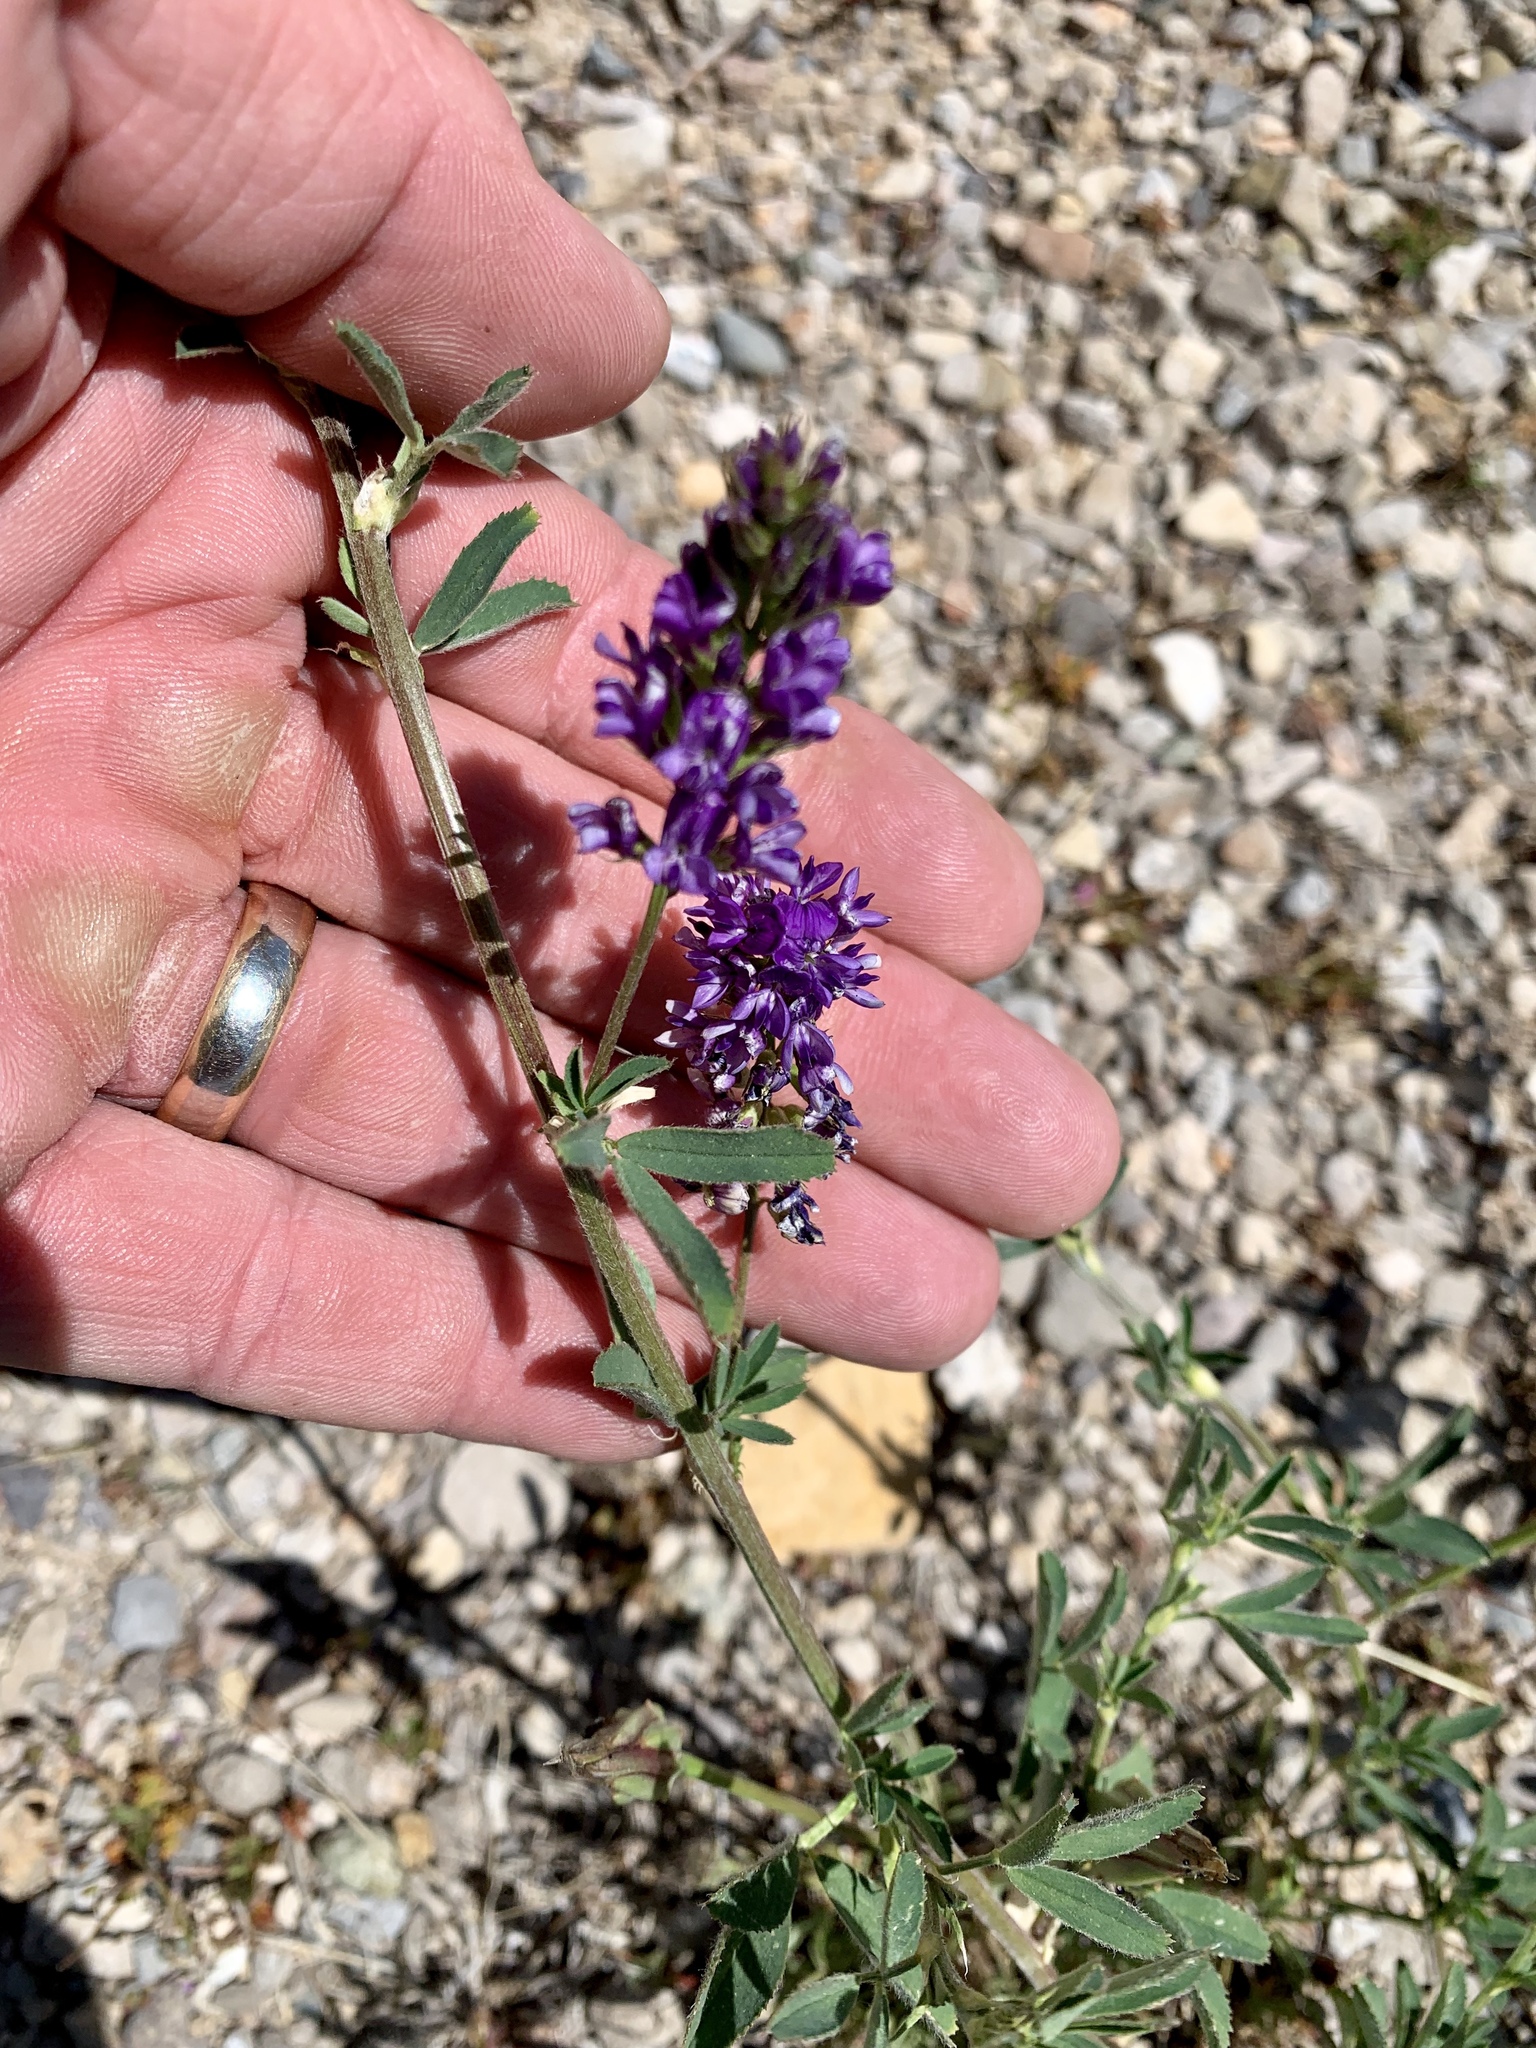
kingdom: Plantae
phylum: Tracheophyta
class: Magnoliopsida
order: Fabales
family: Fabaceae
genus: Medicago
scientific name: Medicago sativa
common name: Alfalfa
